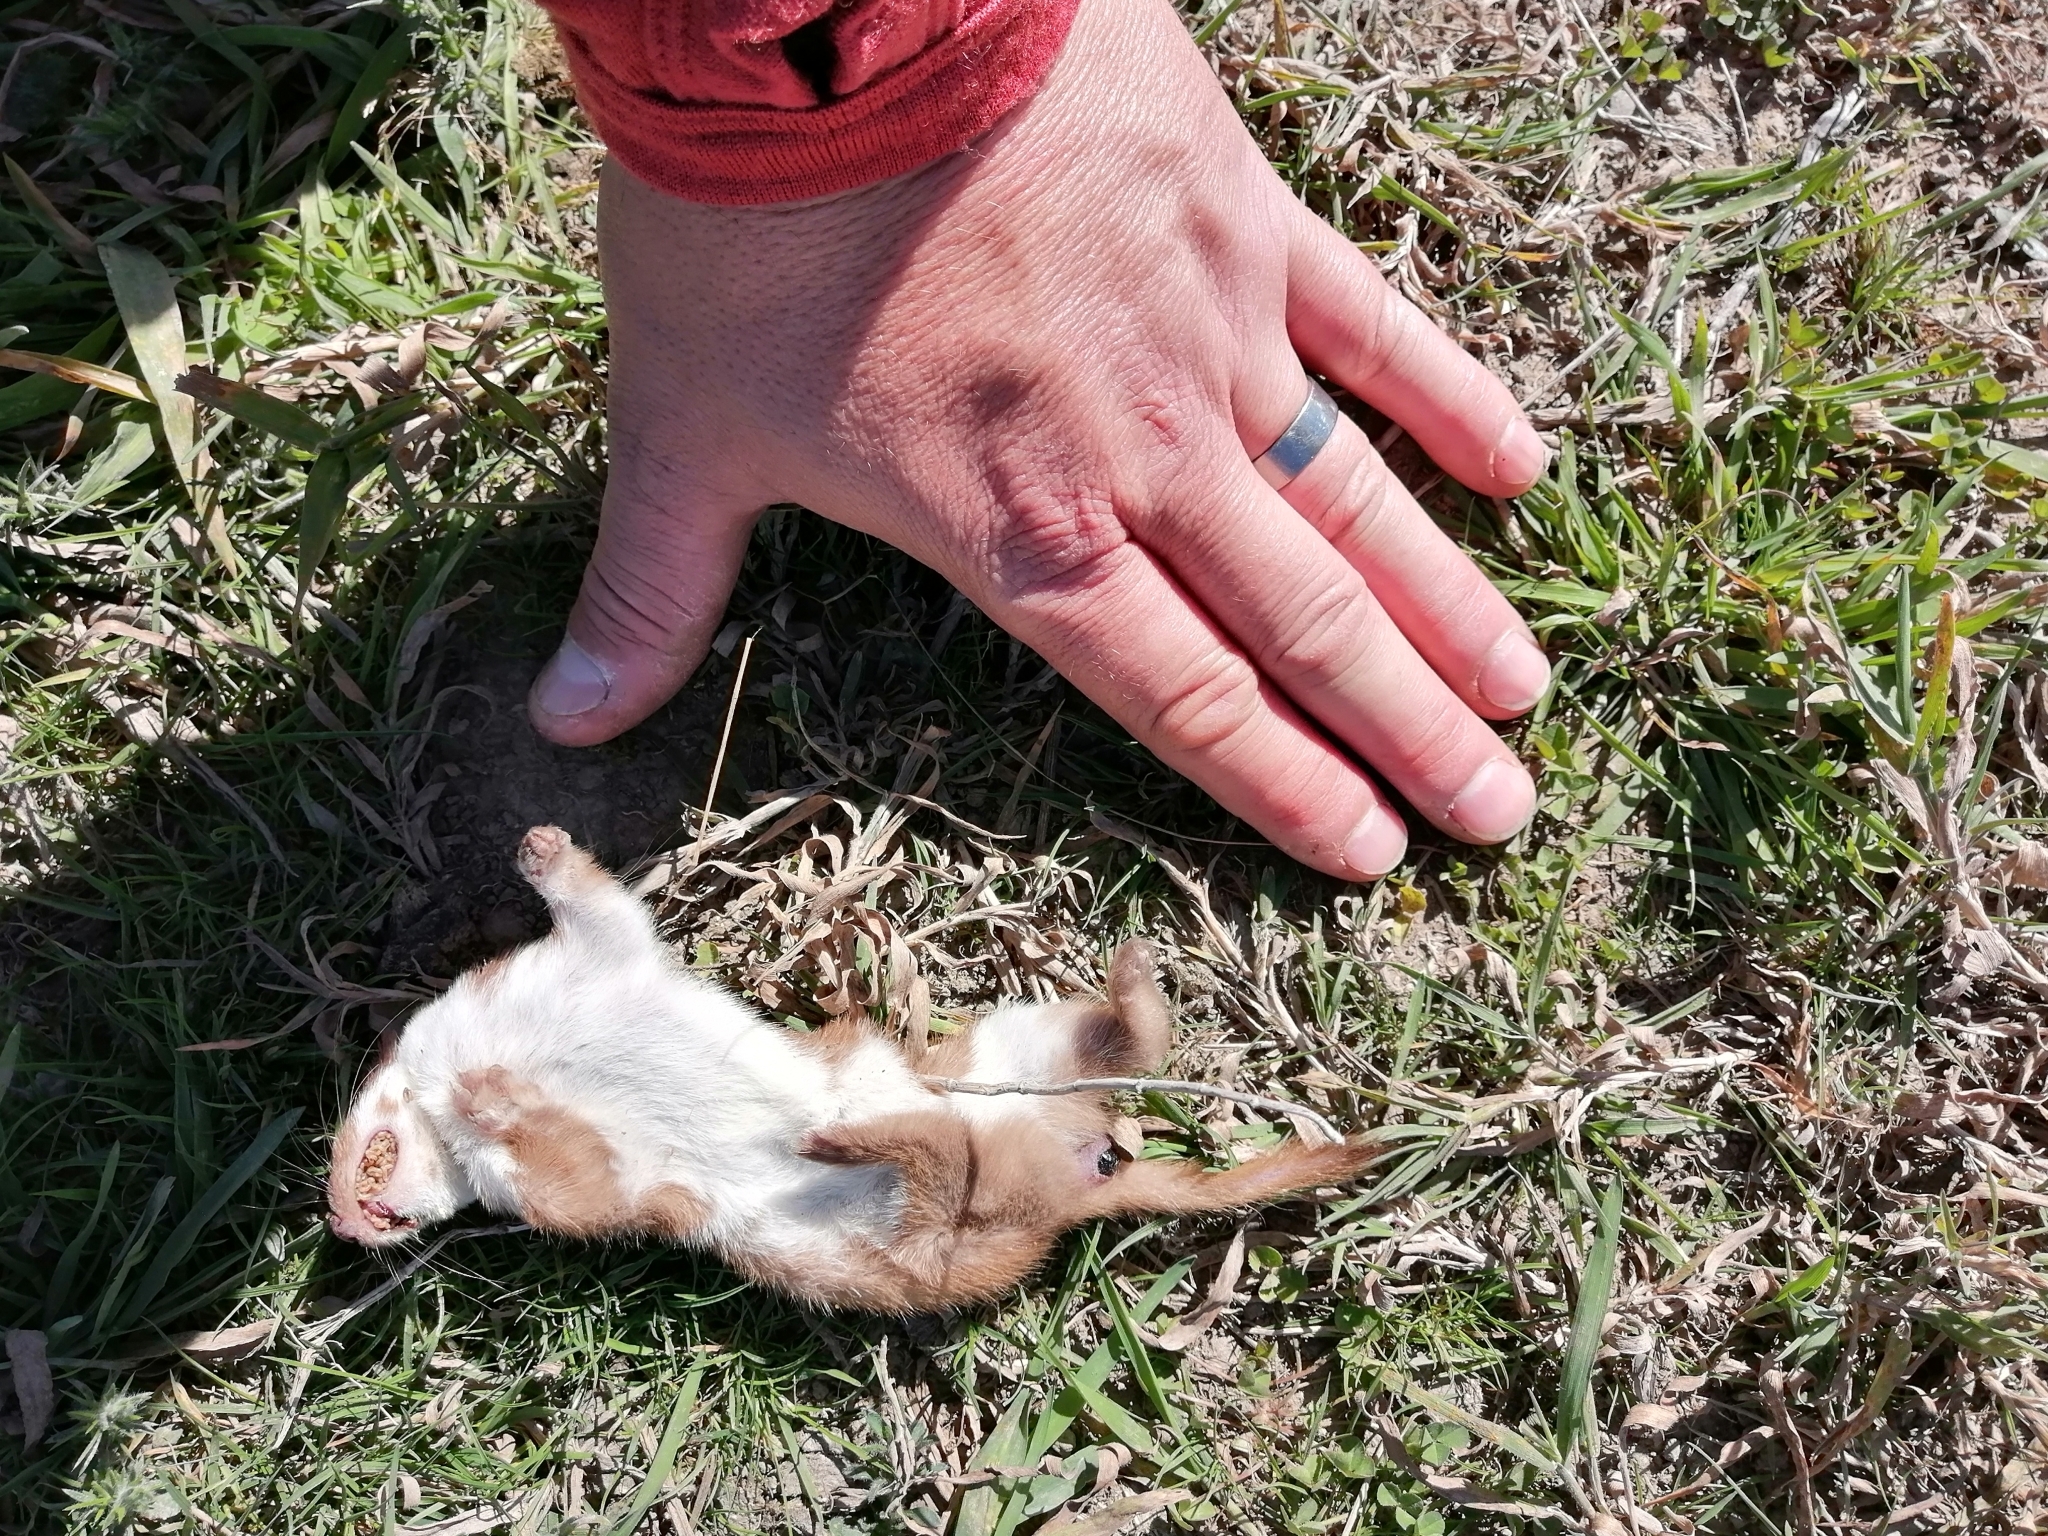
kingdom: Animalia
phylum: Chordata
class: Mammalia
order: Carnivora
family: Mustelidae
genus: Mustela
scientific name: Mustela nivalis
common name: Least weasel
